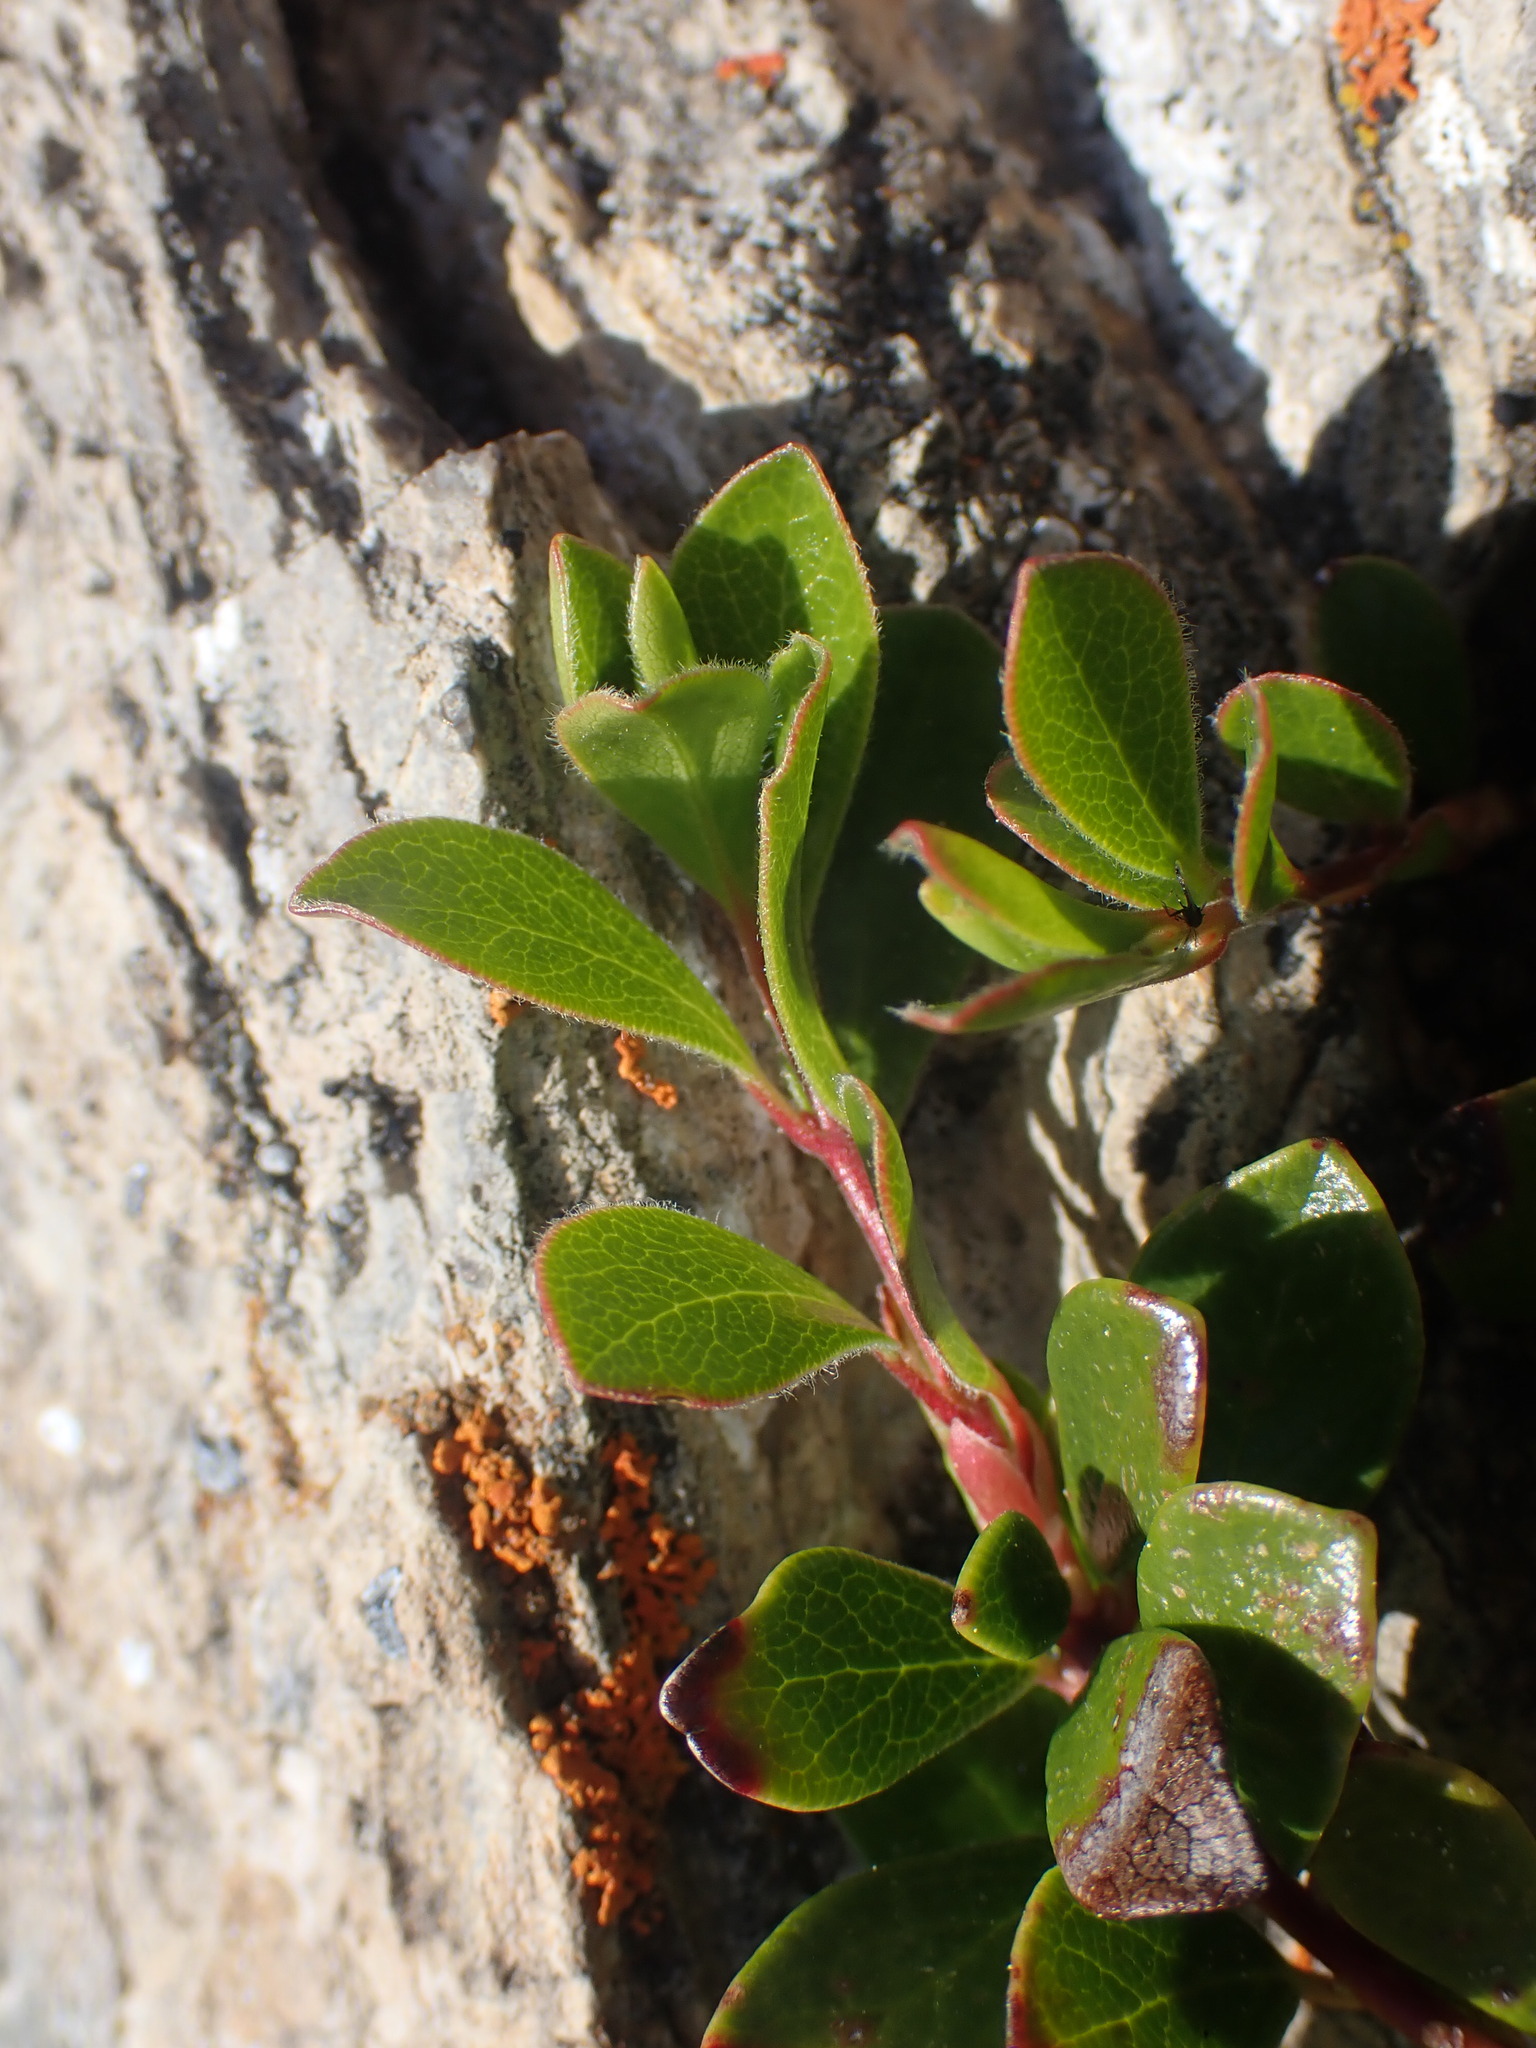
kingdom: Plantae
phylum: Tracheophyta
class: Magnoliopsida
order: Ericales
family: Ericaceae
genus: Arctostaphylos
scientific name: Arctostaphylos uva-ursi
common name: Bearberry
